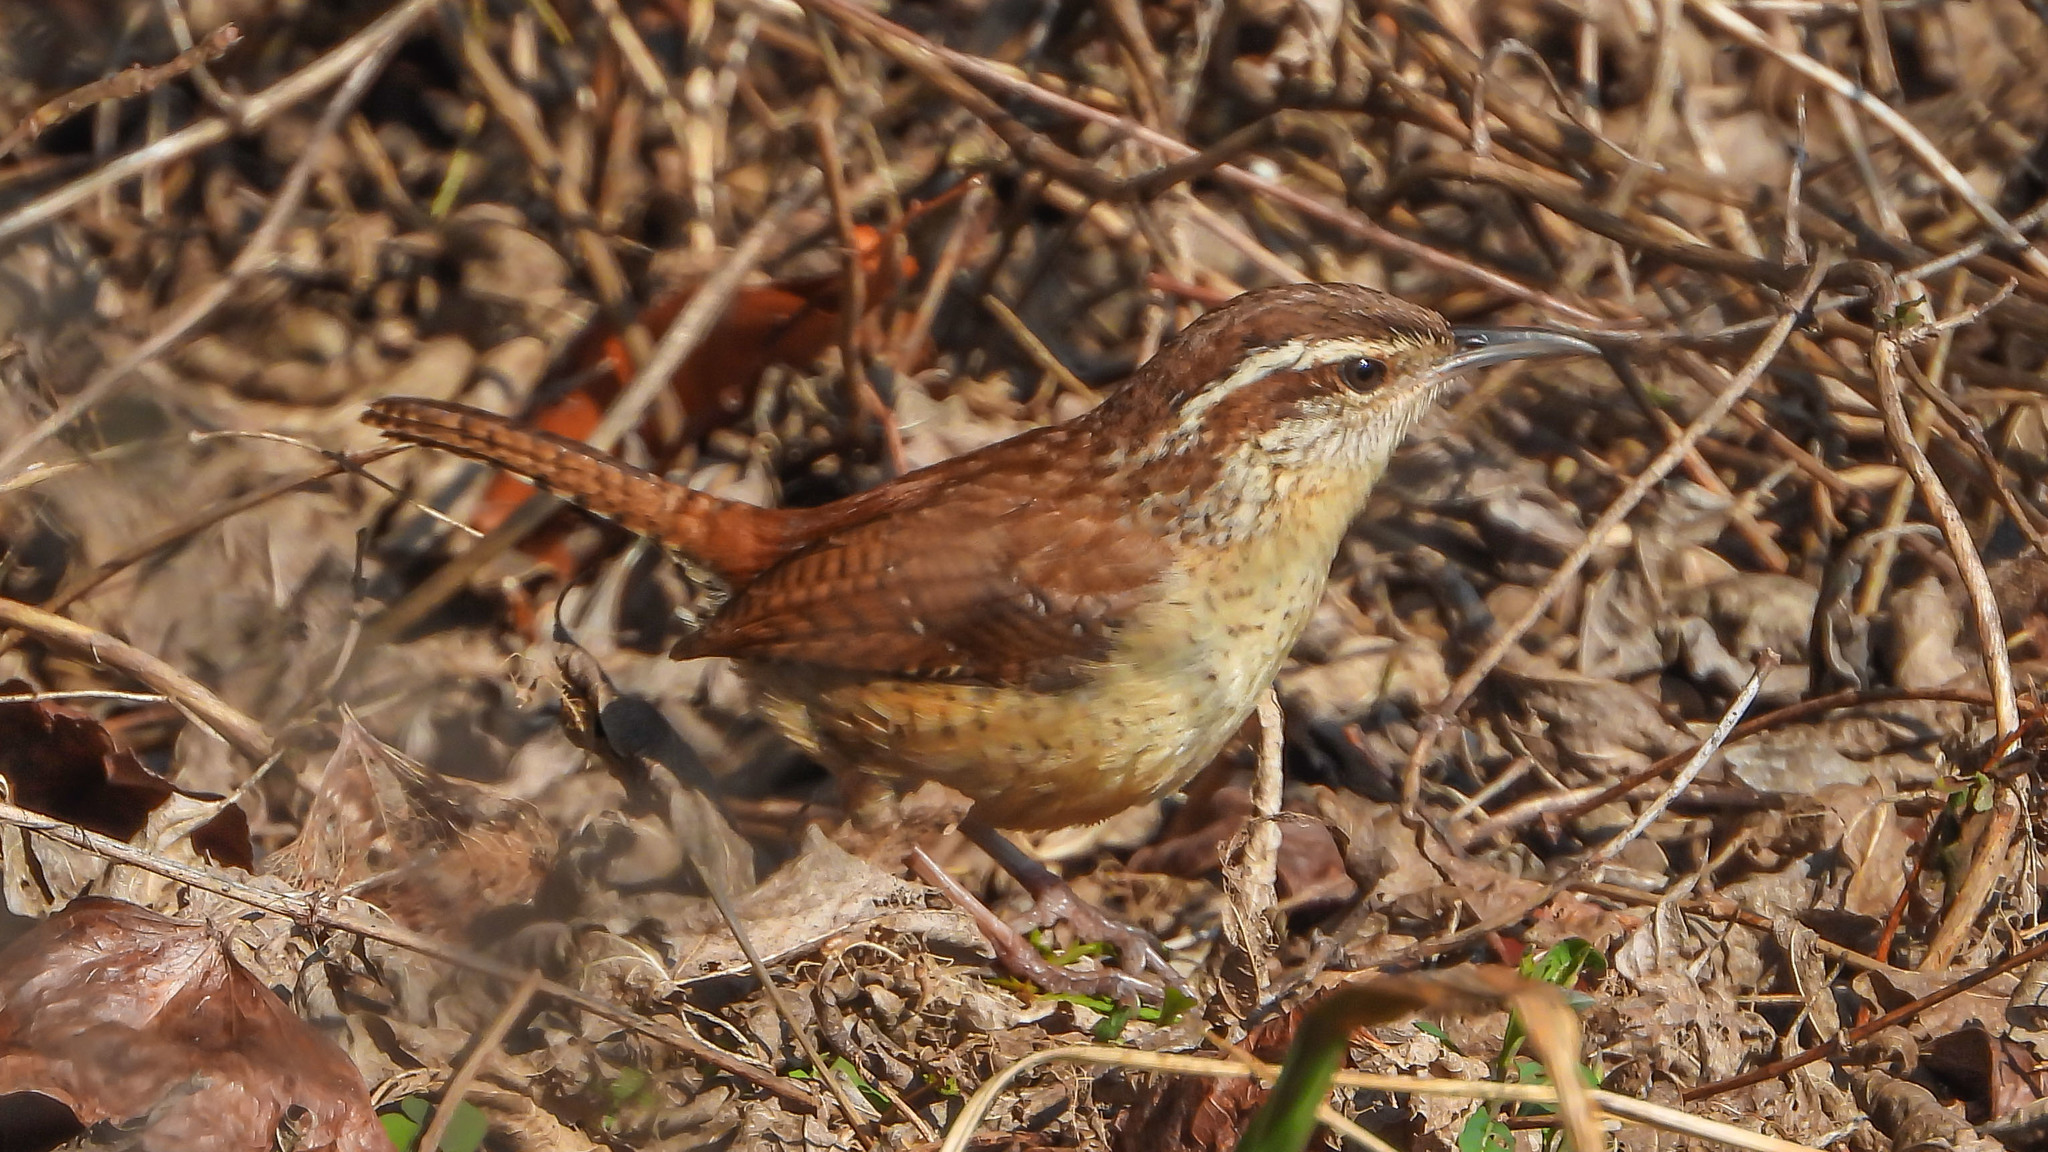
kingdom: Animalia
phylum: Chordata
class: Aves
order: Passeriformes
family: Troglodytidae
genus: Thryothorus
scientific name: Thryothorus ludovicianus
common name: Carolina wren
